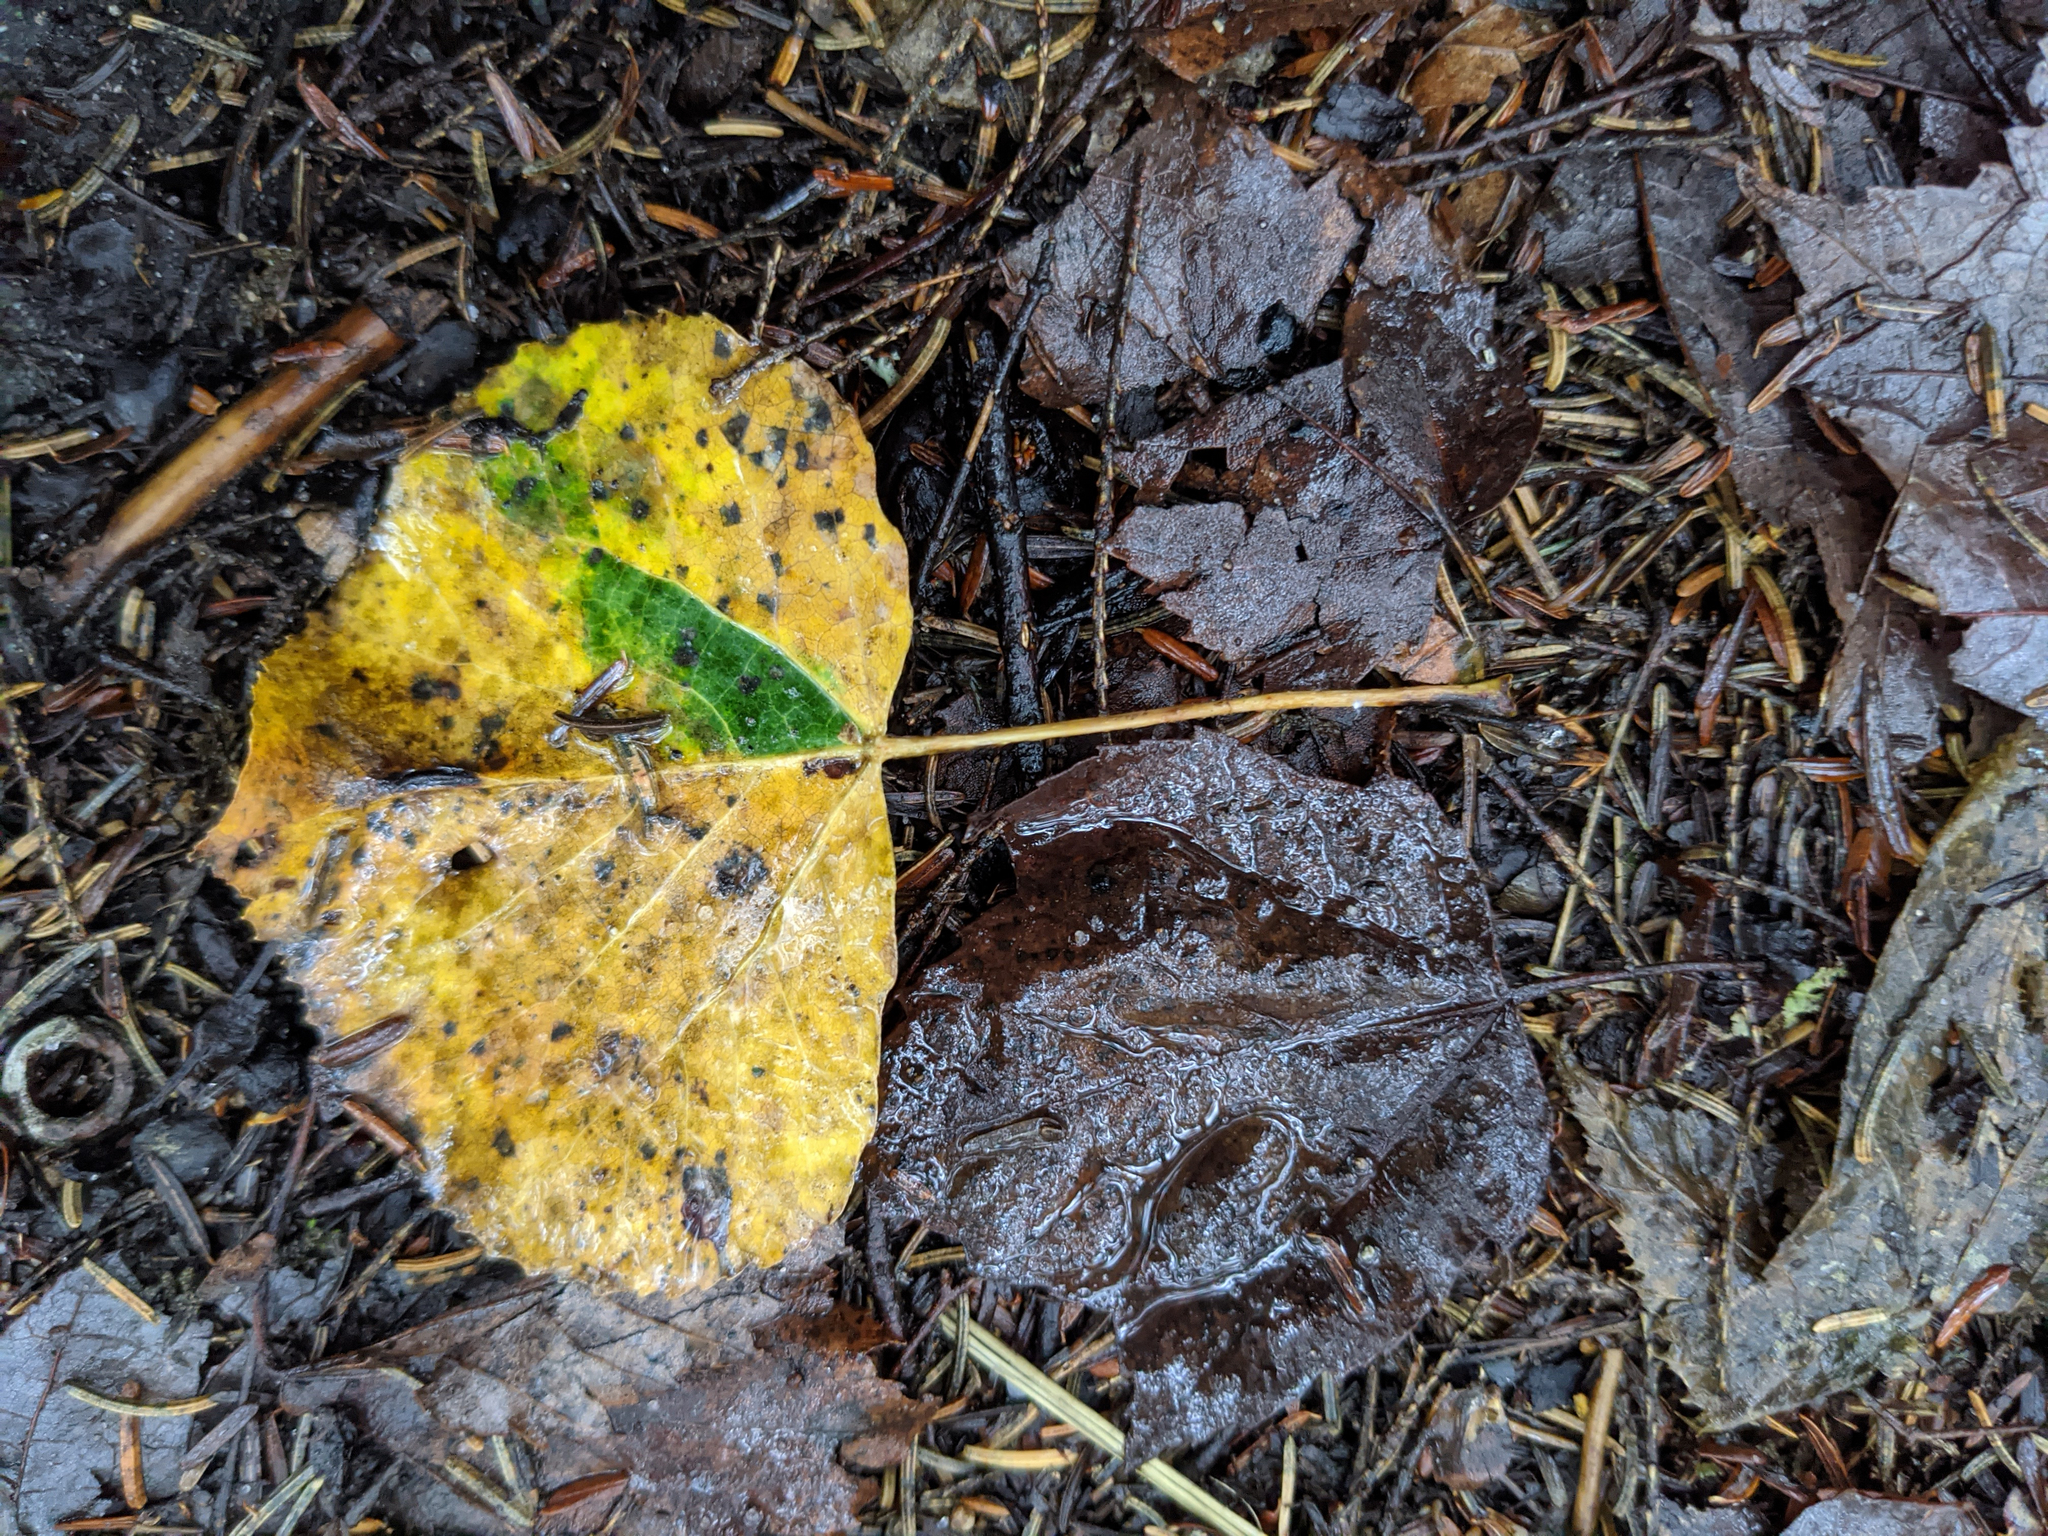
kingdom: Plantae
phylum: Tracheophyta
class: Magnoliopsida
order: Malpighiales
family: Salicaceae
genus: Populus
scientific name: Populus tremuloides
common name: Quaking aspen
